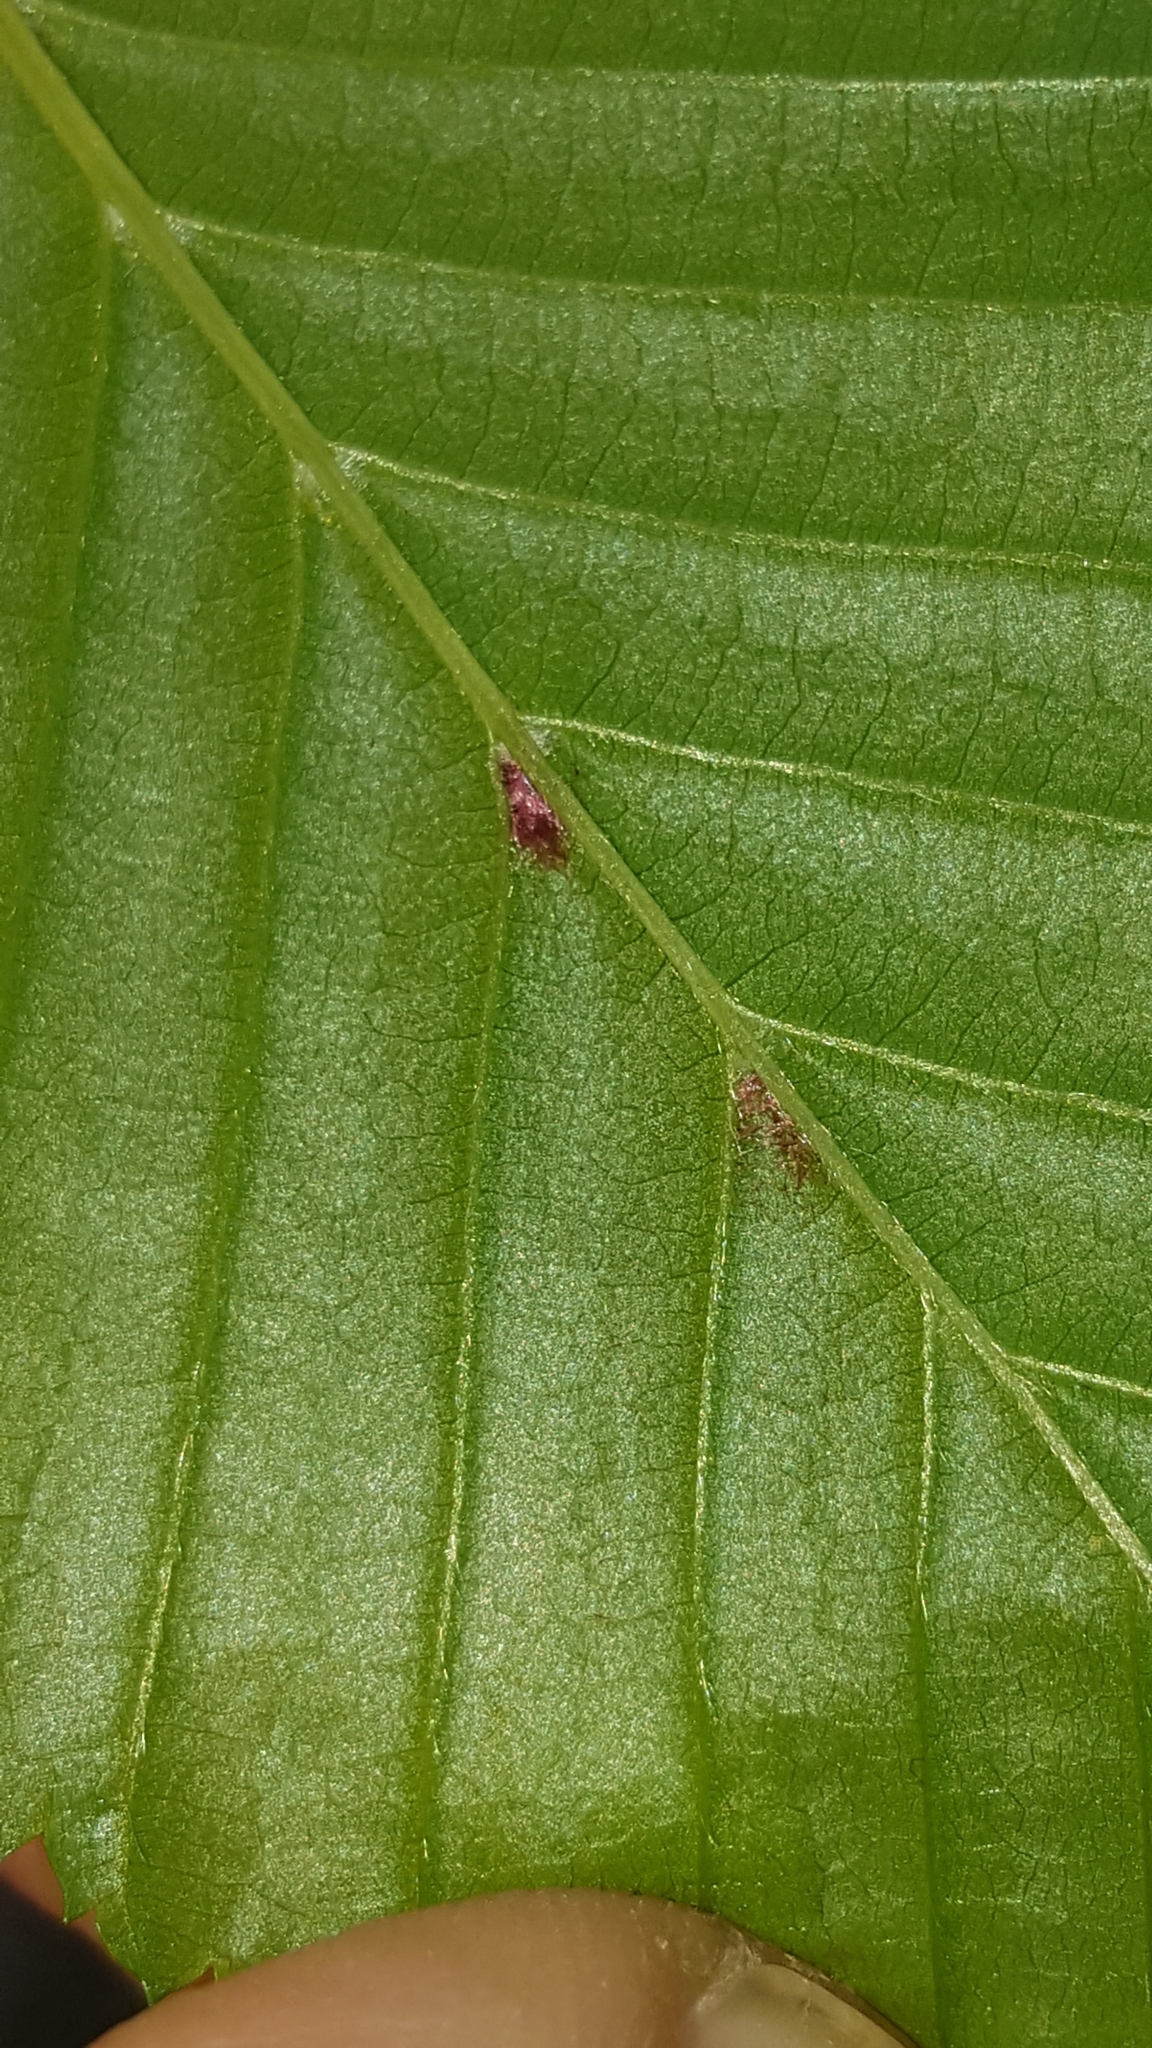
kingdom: Animalia
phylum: Arthropoda
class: Arachnida
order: Trombidiformes
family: Eriophyidae
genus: Aceria
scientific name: Aceria tenellus
